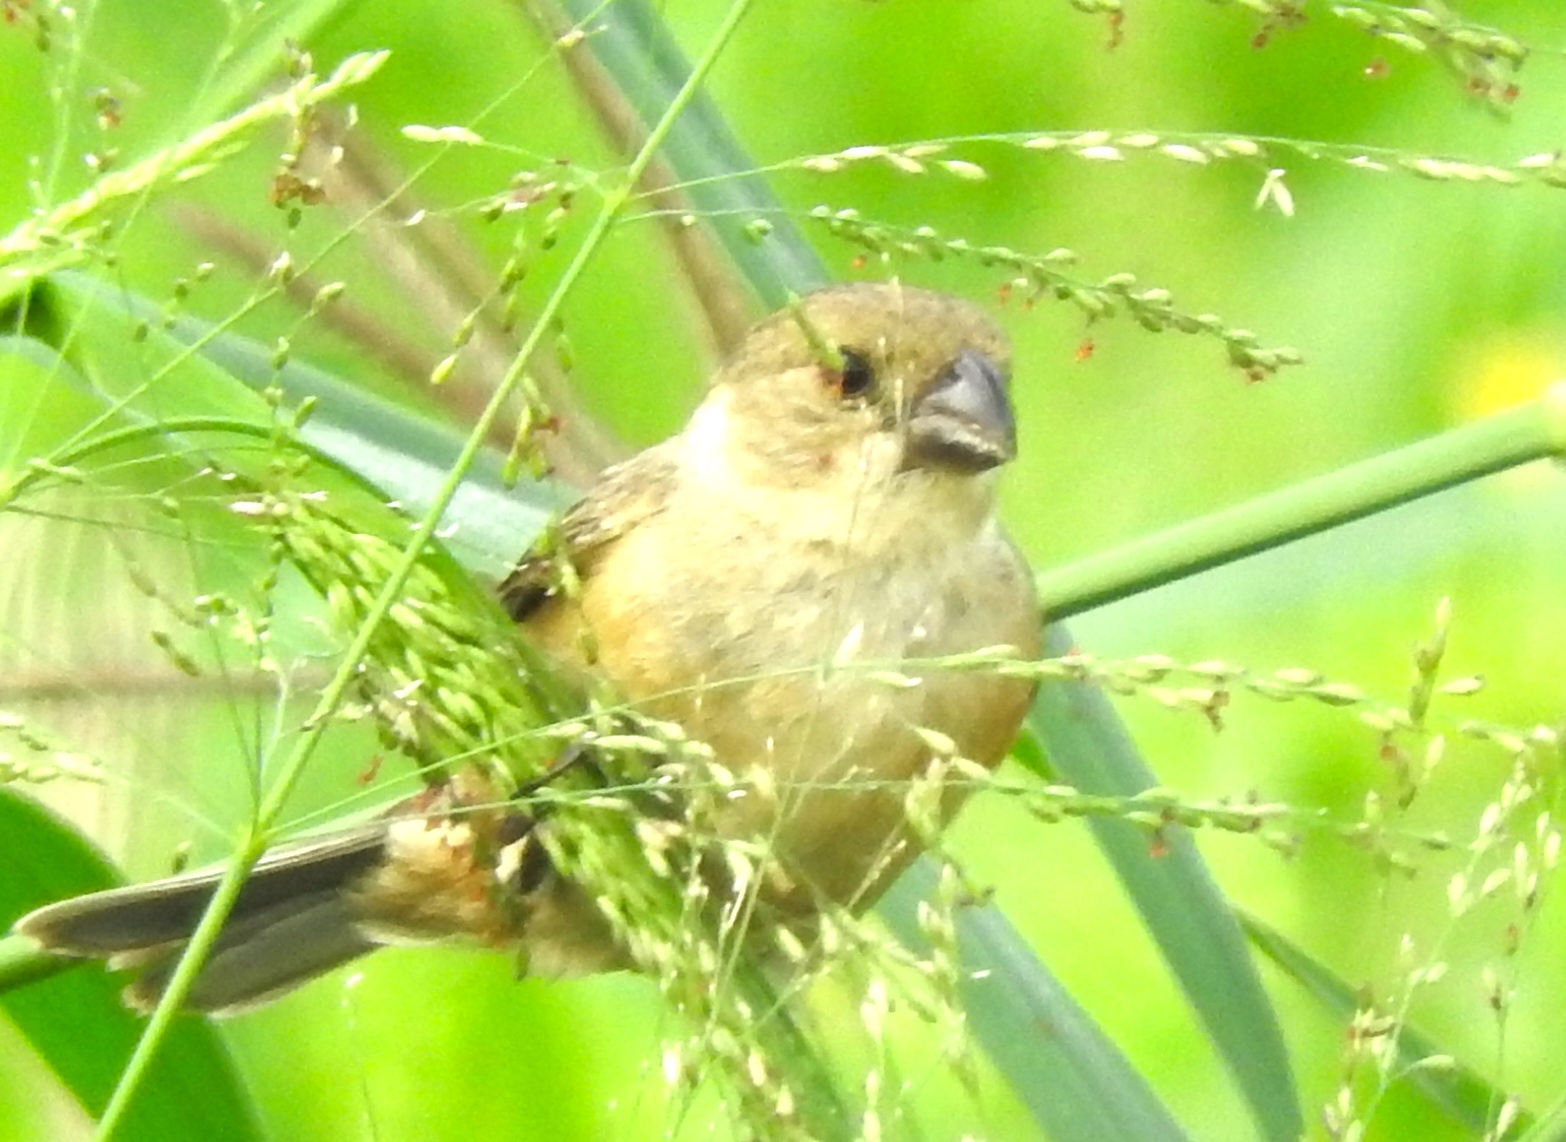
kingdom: Animalia
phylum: Chordata
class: Aves
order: Passeriformes
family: Thraupidae
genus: Sporophila
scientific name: Sporophila torqueola
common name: White-collared seedeater
